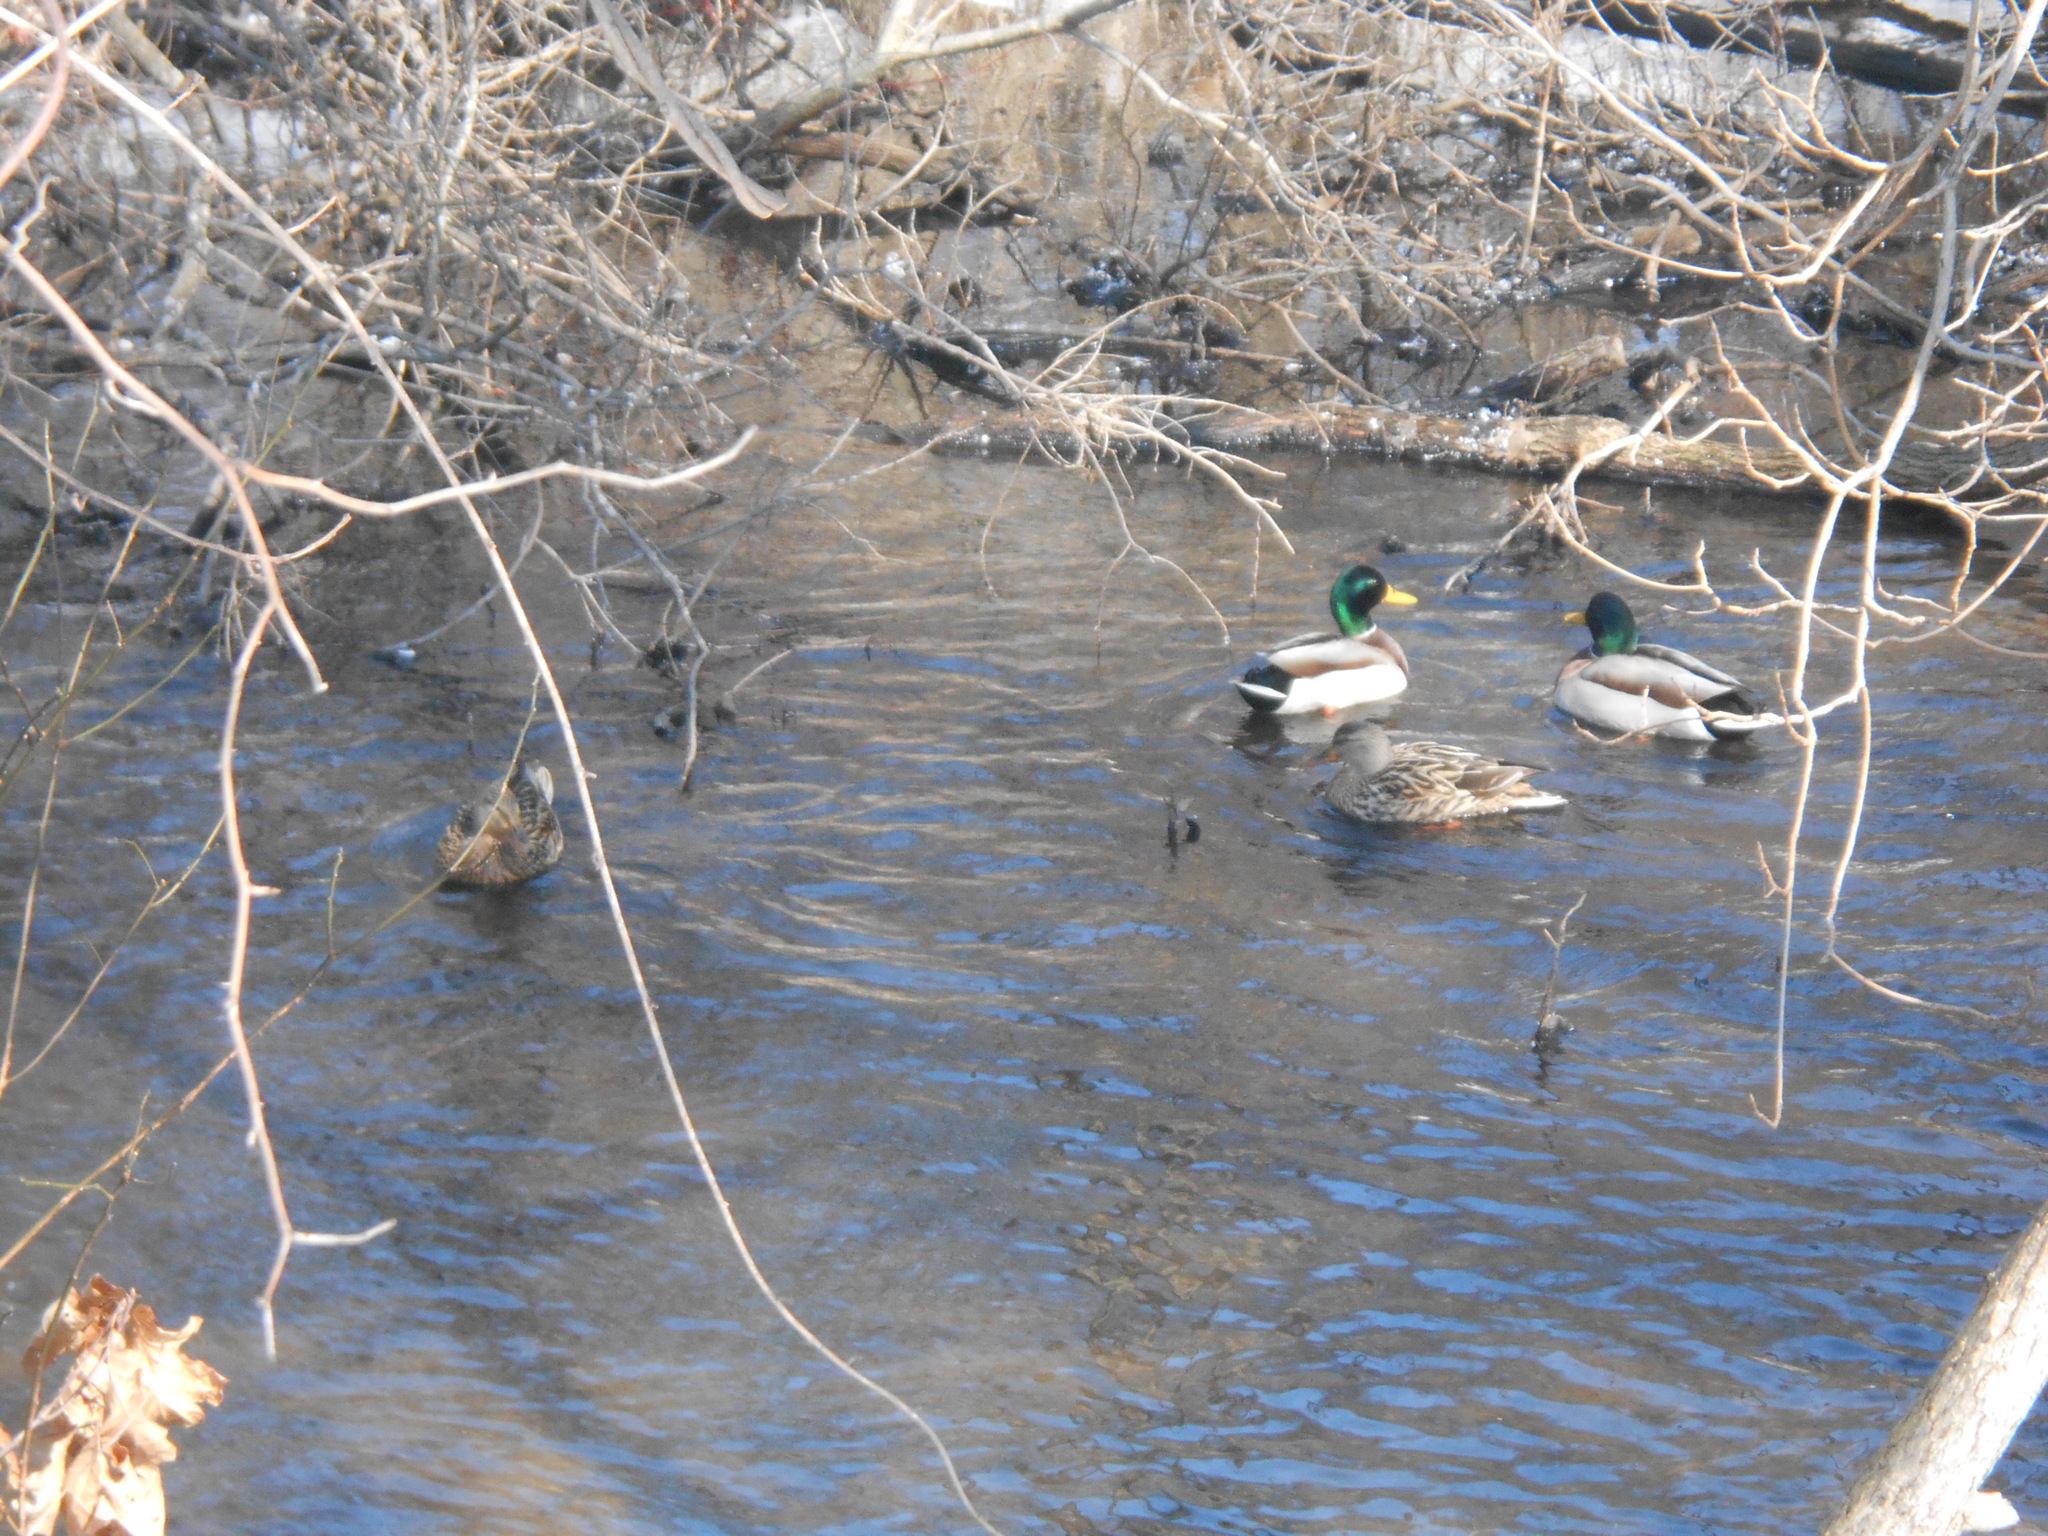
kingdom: Animalia
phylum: Chordata
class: Aves
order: Anseriformes
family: Anatidae
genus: Anas
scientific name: Anas platyrhynchos
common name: Mallard
